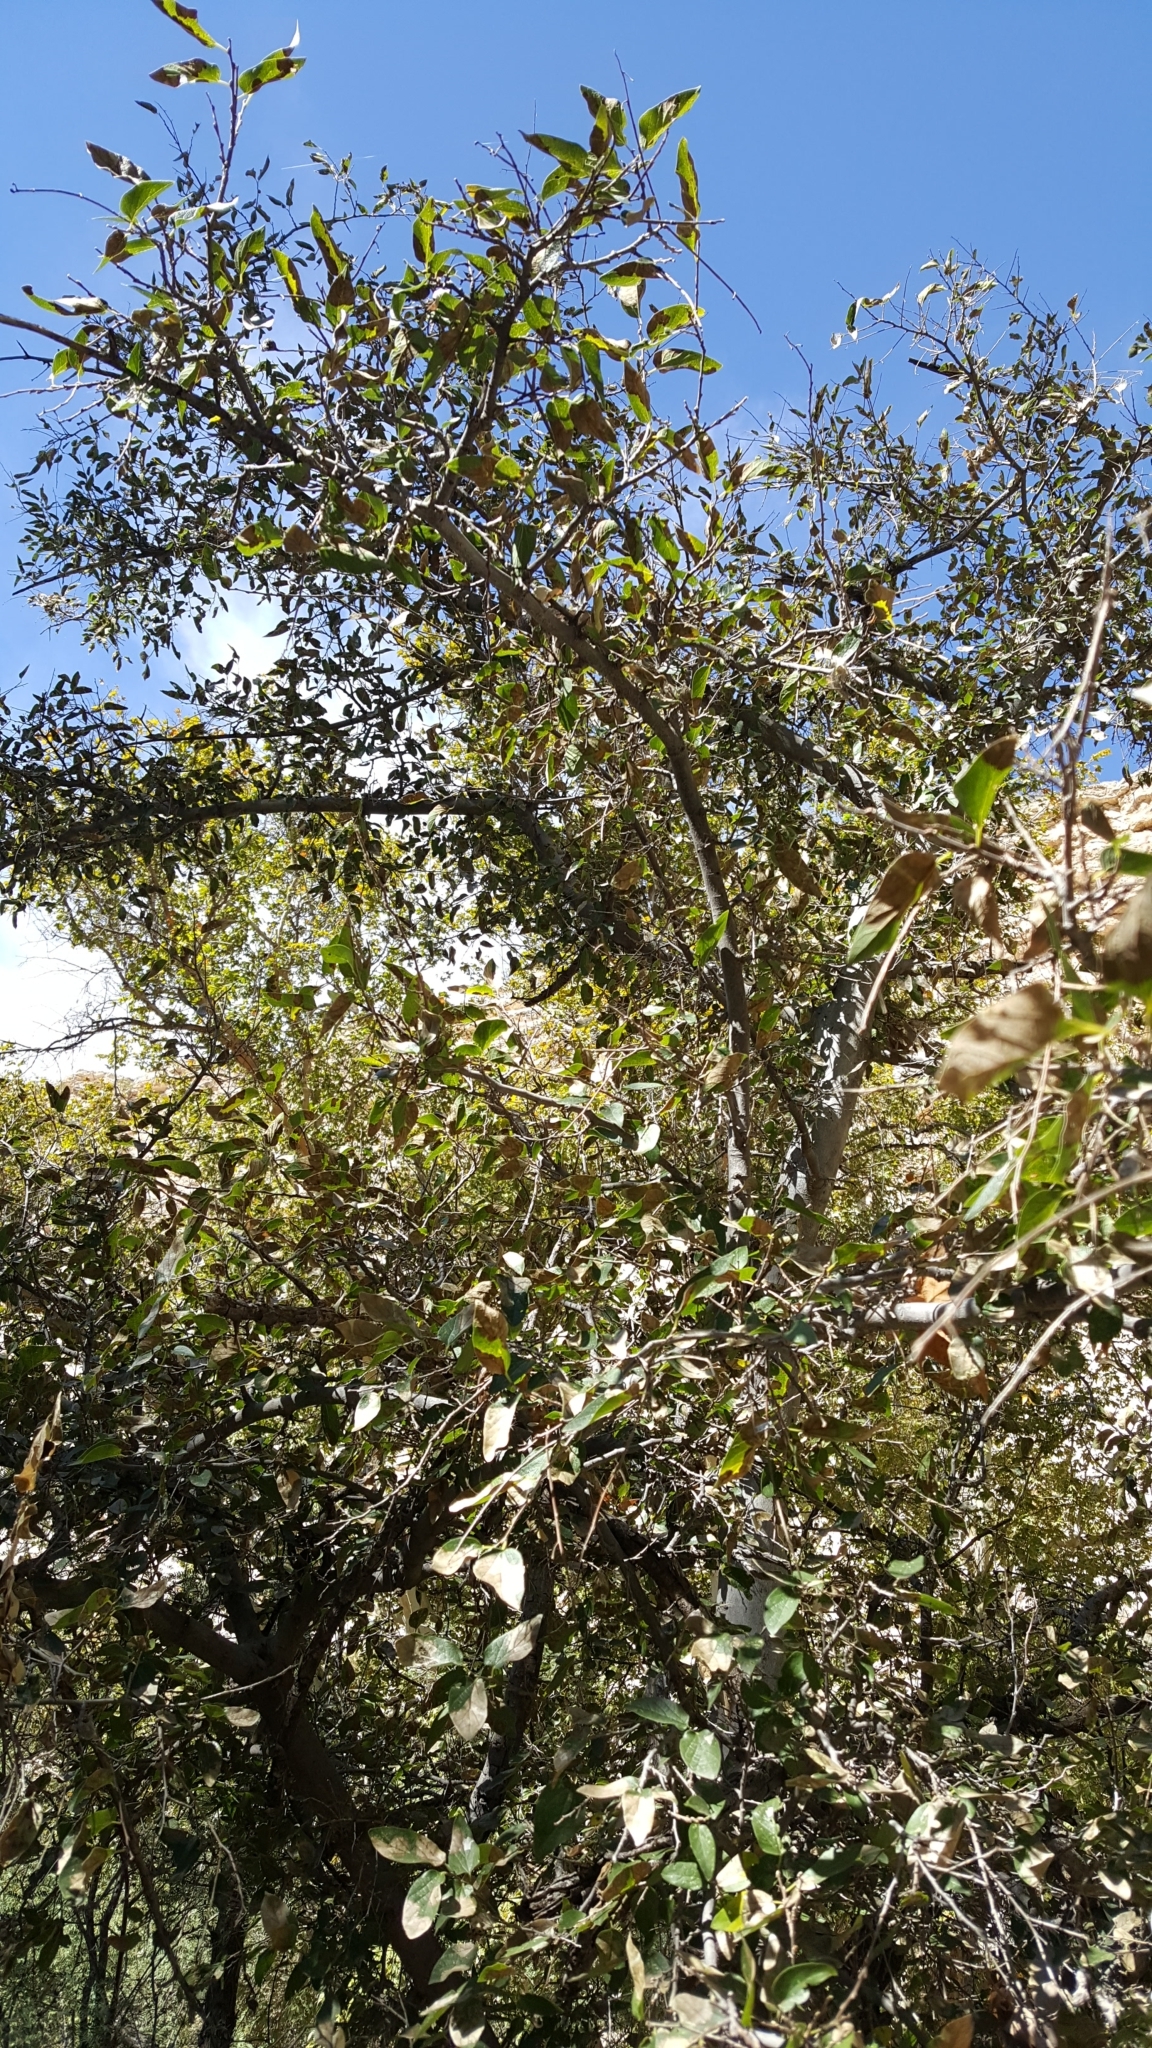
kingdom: Plantae
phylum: Tracheophyta
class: Magnoliopsida
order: Rosales
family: Cannabaceae
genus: Celtis
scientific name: Celtis reticulata
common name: Netleaf hackberry
